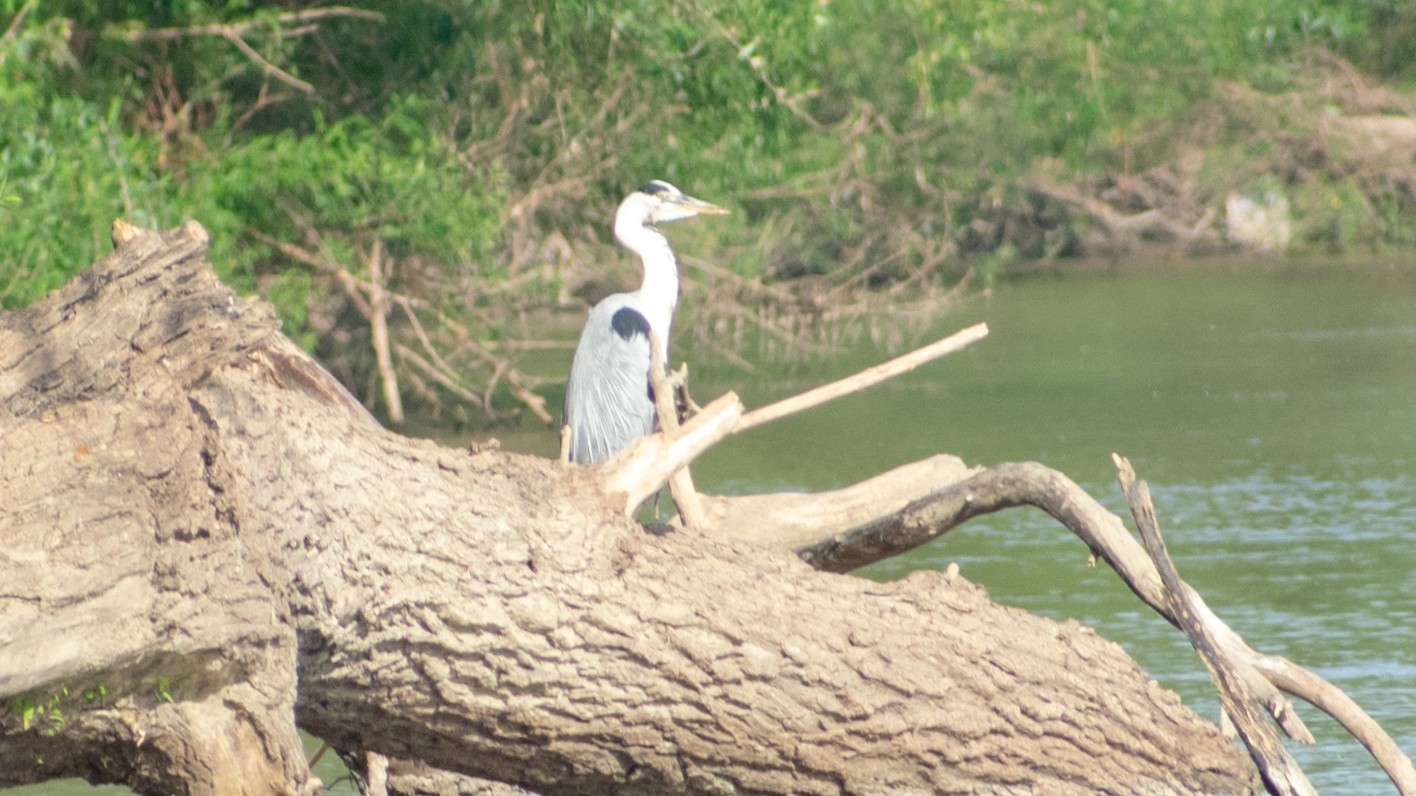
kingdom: Animalia
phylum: Chordata
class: Aves
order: Pelecaniformes
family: Ardeidae
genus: Ardea
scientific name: Ardea cinerea
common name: Grey heron
